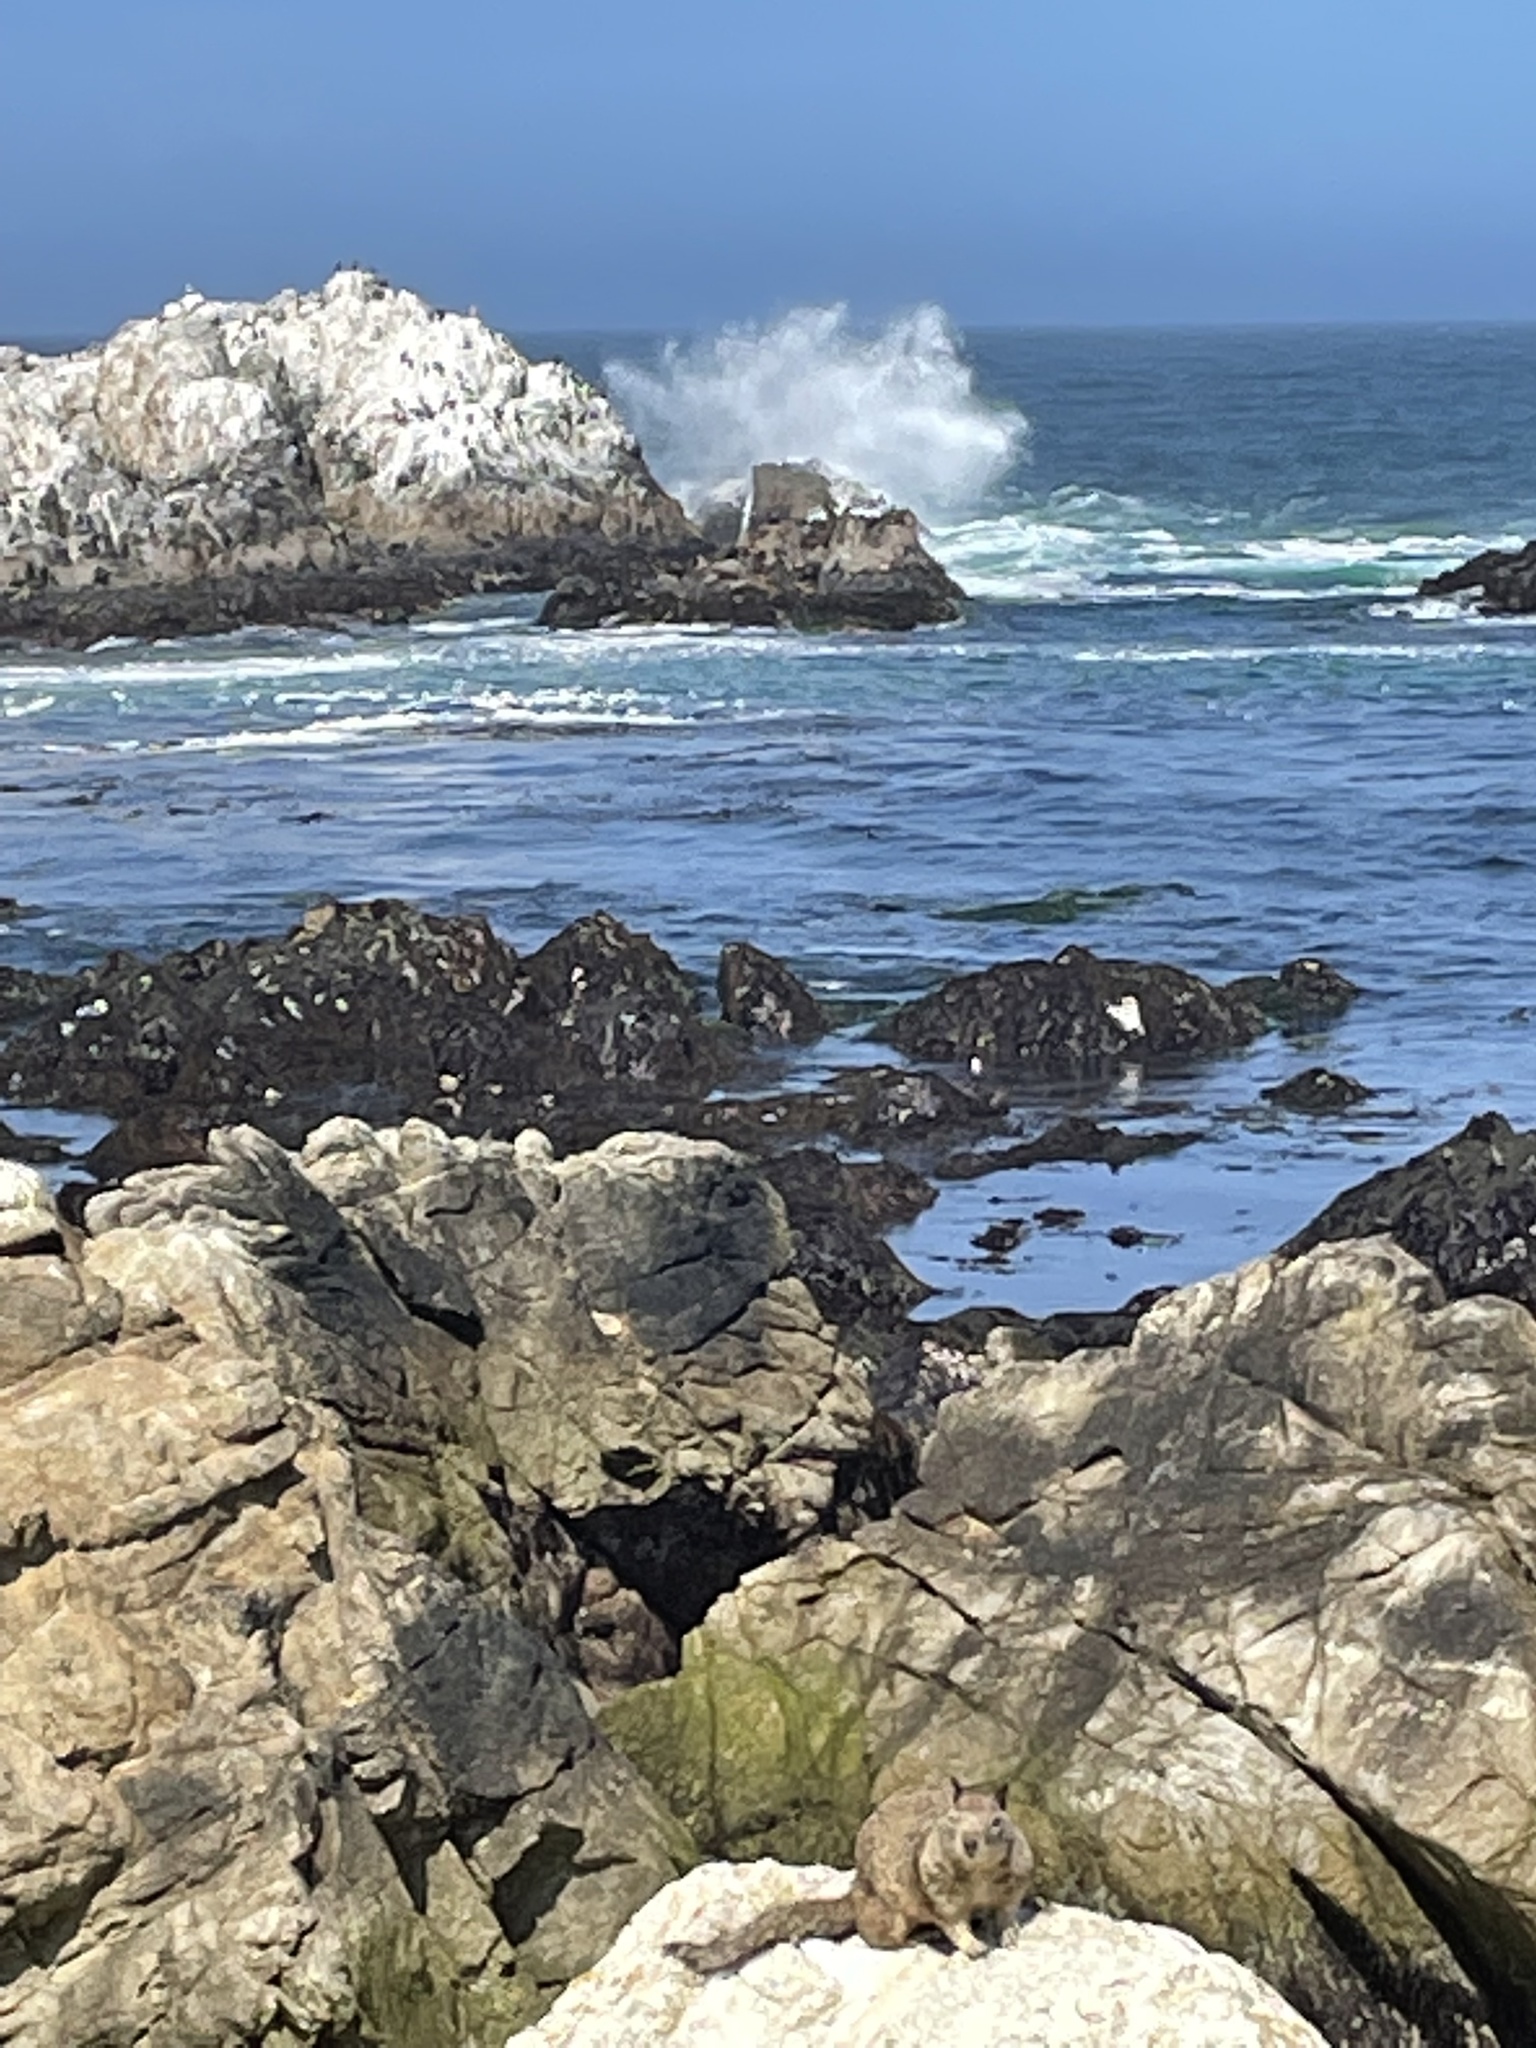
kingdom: Animalia
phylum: Chordata
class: Aves
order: Suliformes
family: Phalacrocoracidae
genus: Urile
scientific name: Urile penicillatus
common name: Brandt's cormorant
